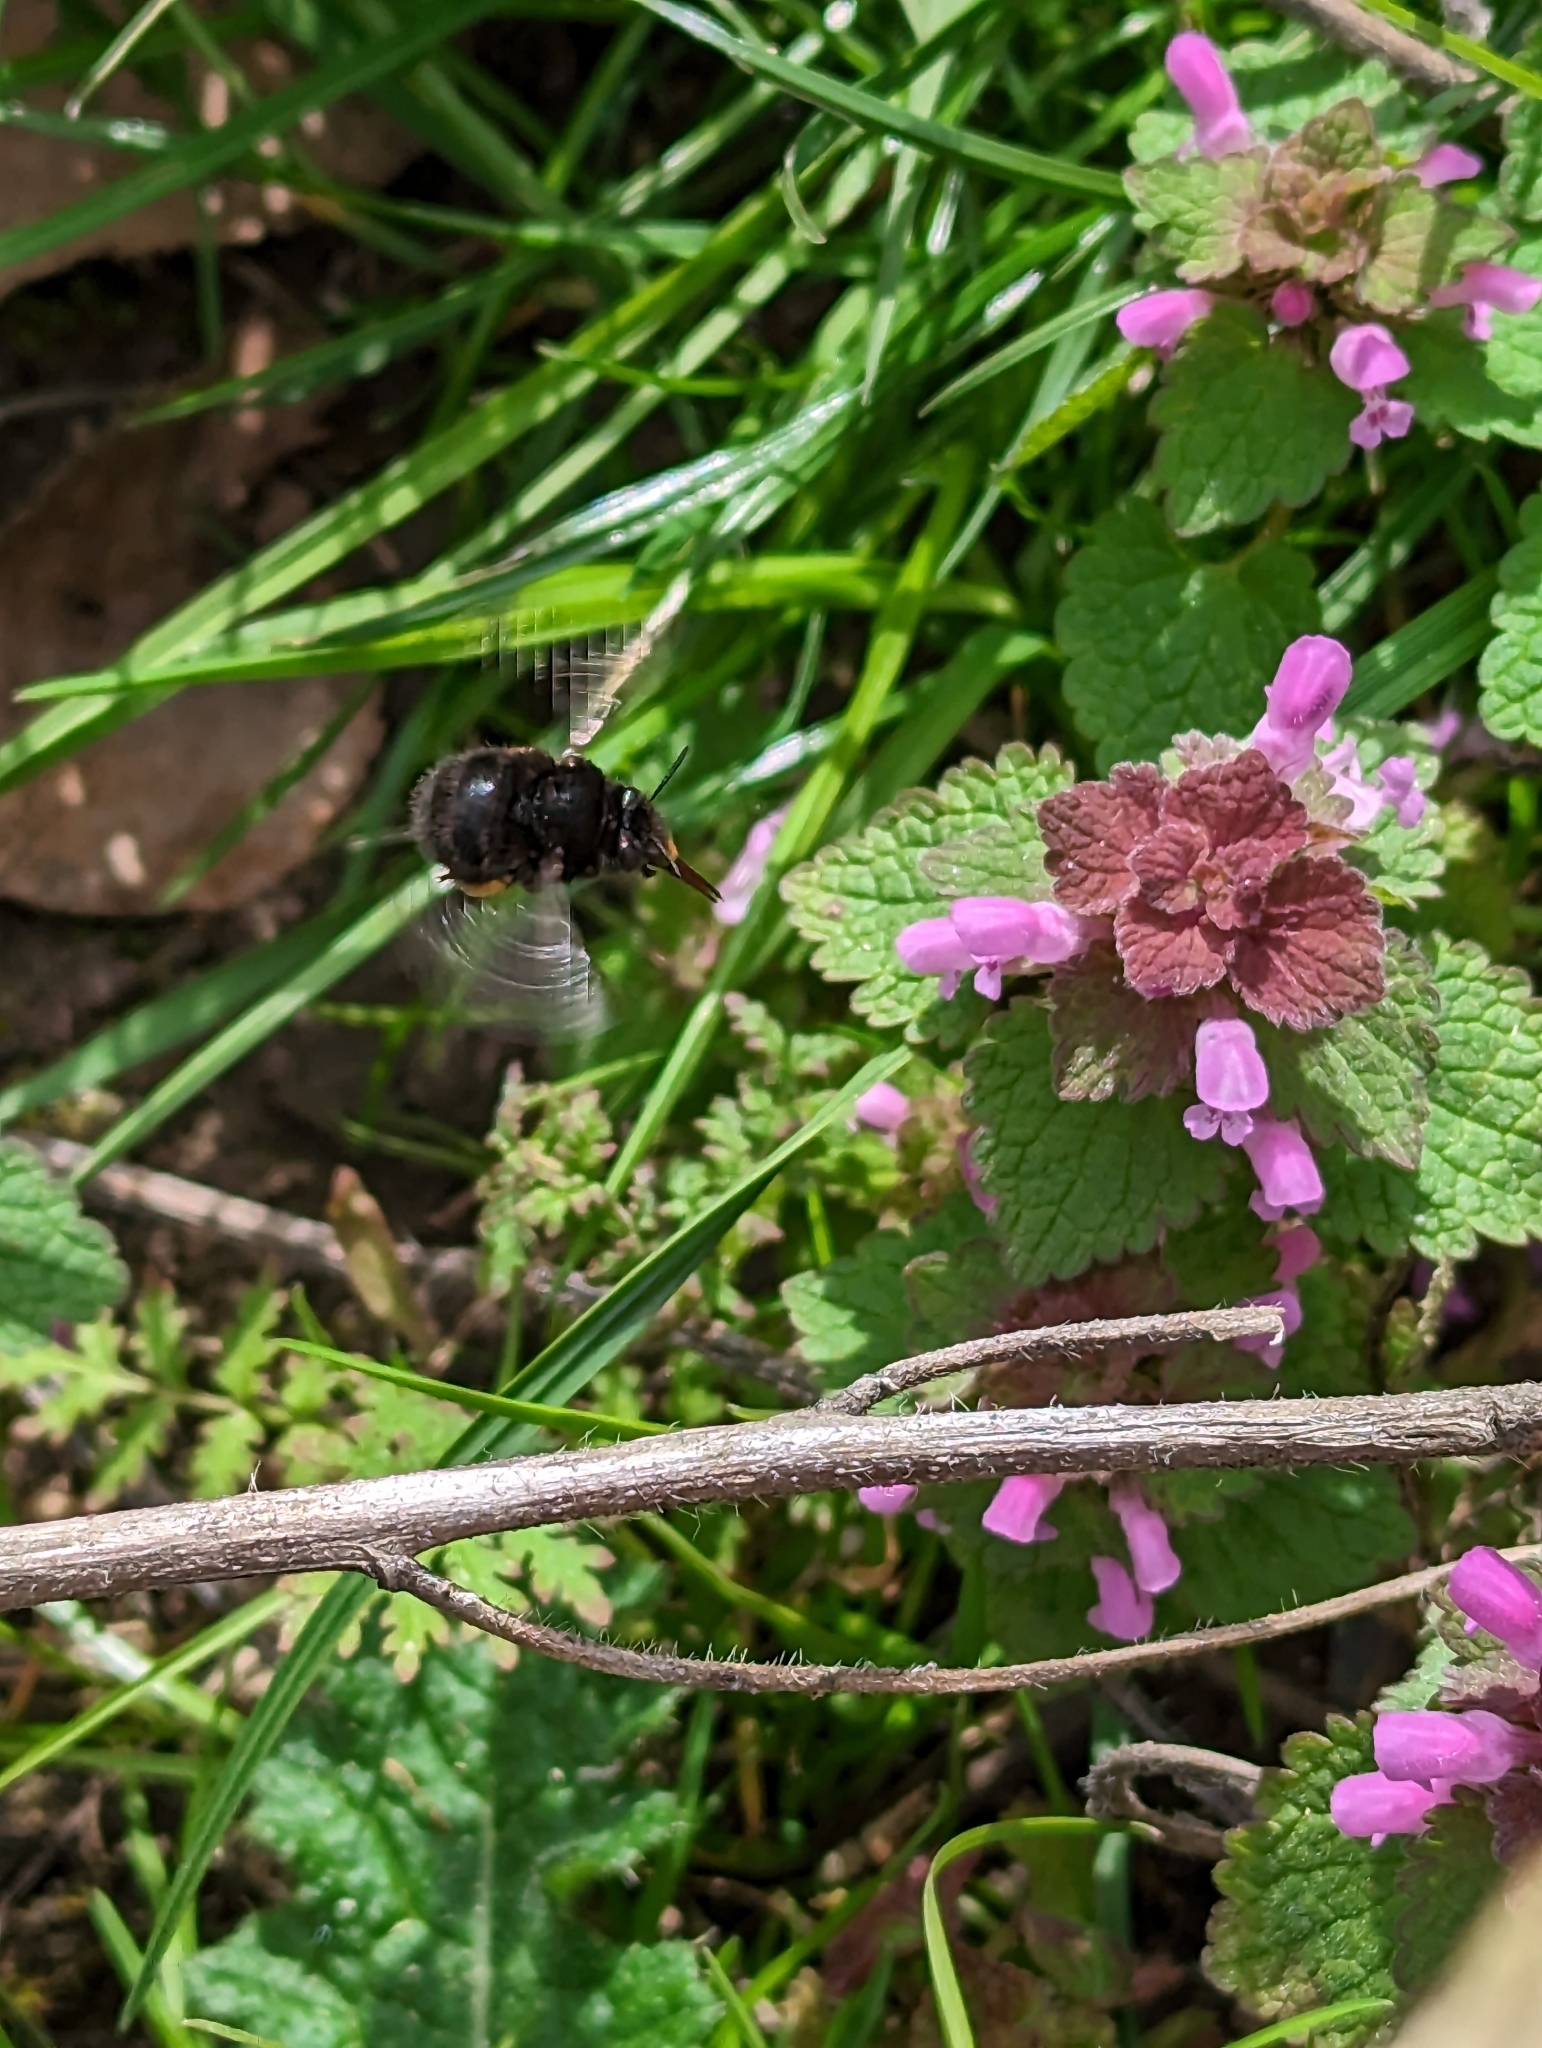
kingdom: Animalia
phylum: Arthropoda
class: Insecta
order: Hymenoptera
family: Apidae
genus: Anthophora
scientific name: Anthophora plumipes
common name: Hairy-footed flower bee
